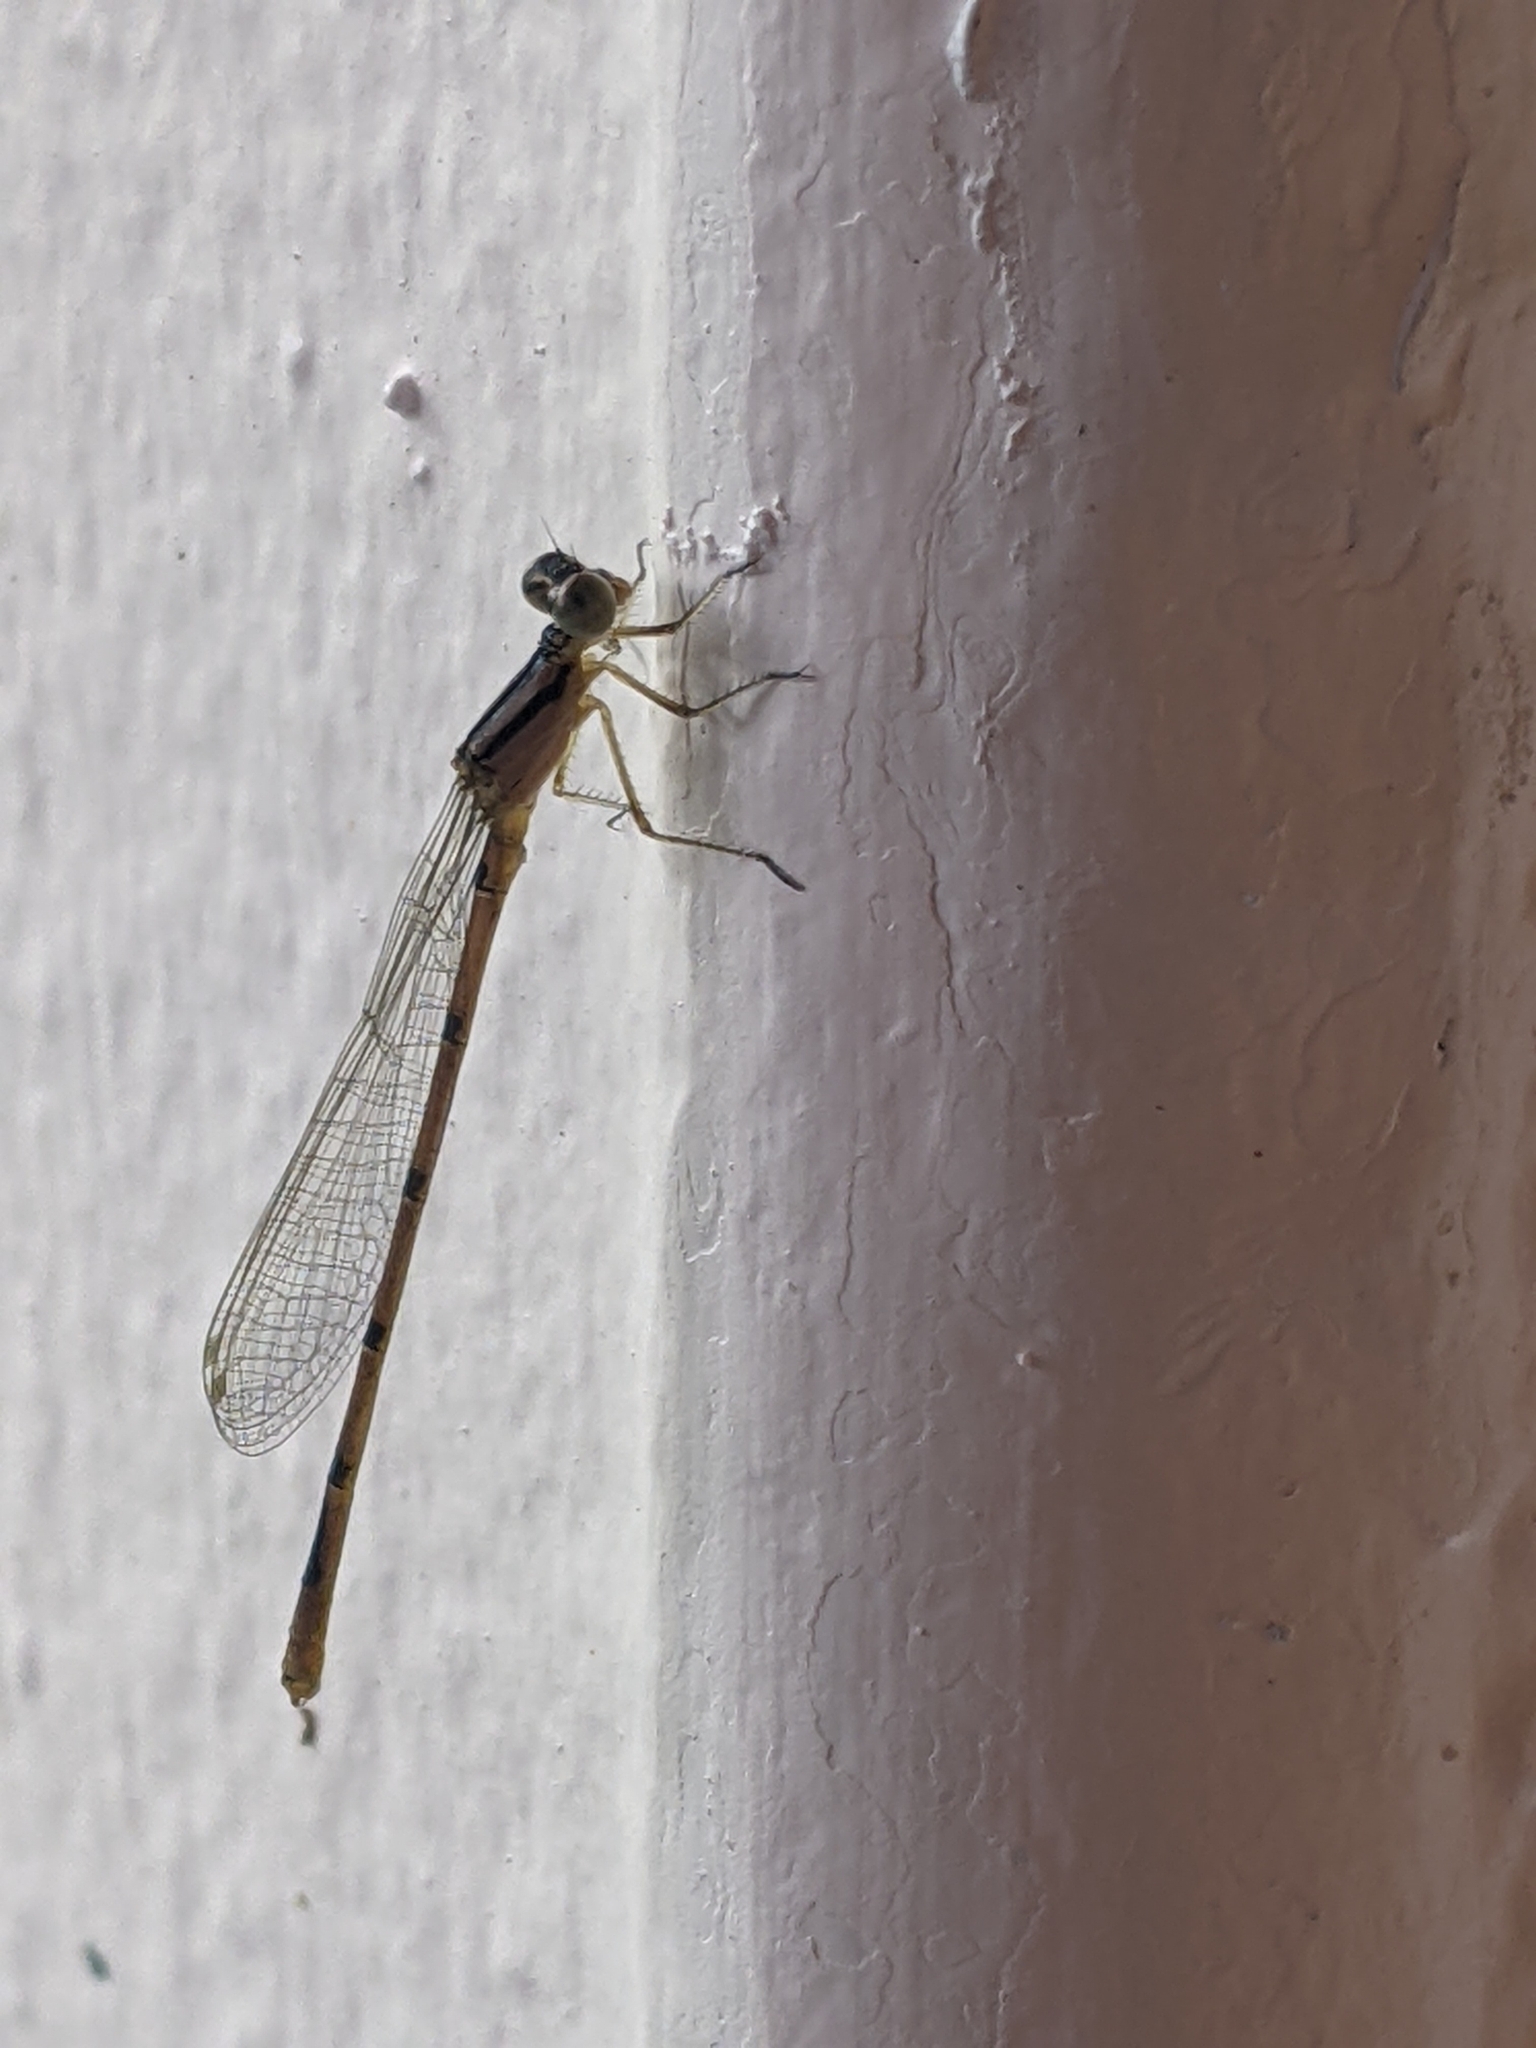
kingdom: Animalia
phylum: Arthropoda
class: Insecta
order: Odonata
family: Coenagrionidae
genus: Enallagma
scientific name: Enallagma doubledayi
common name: Atlantic bluet
